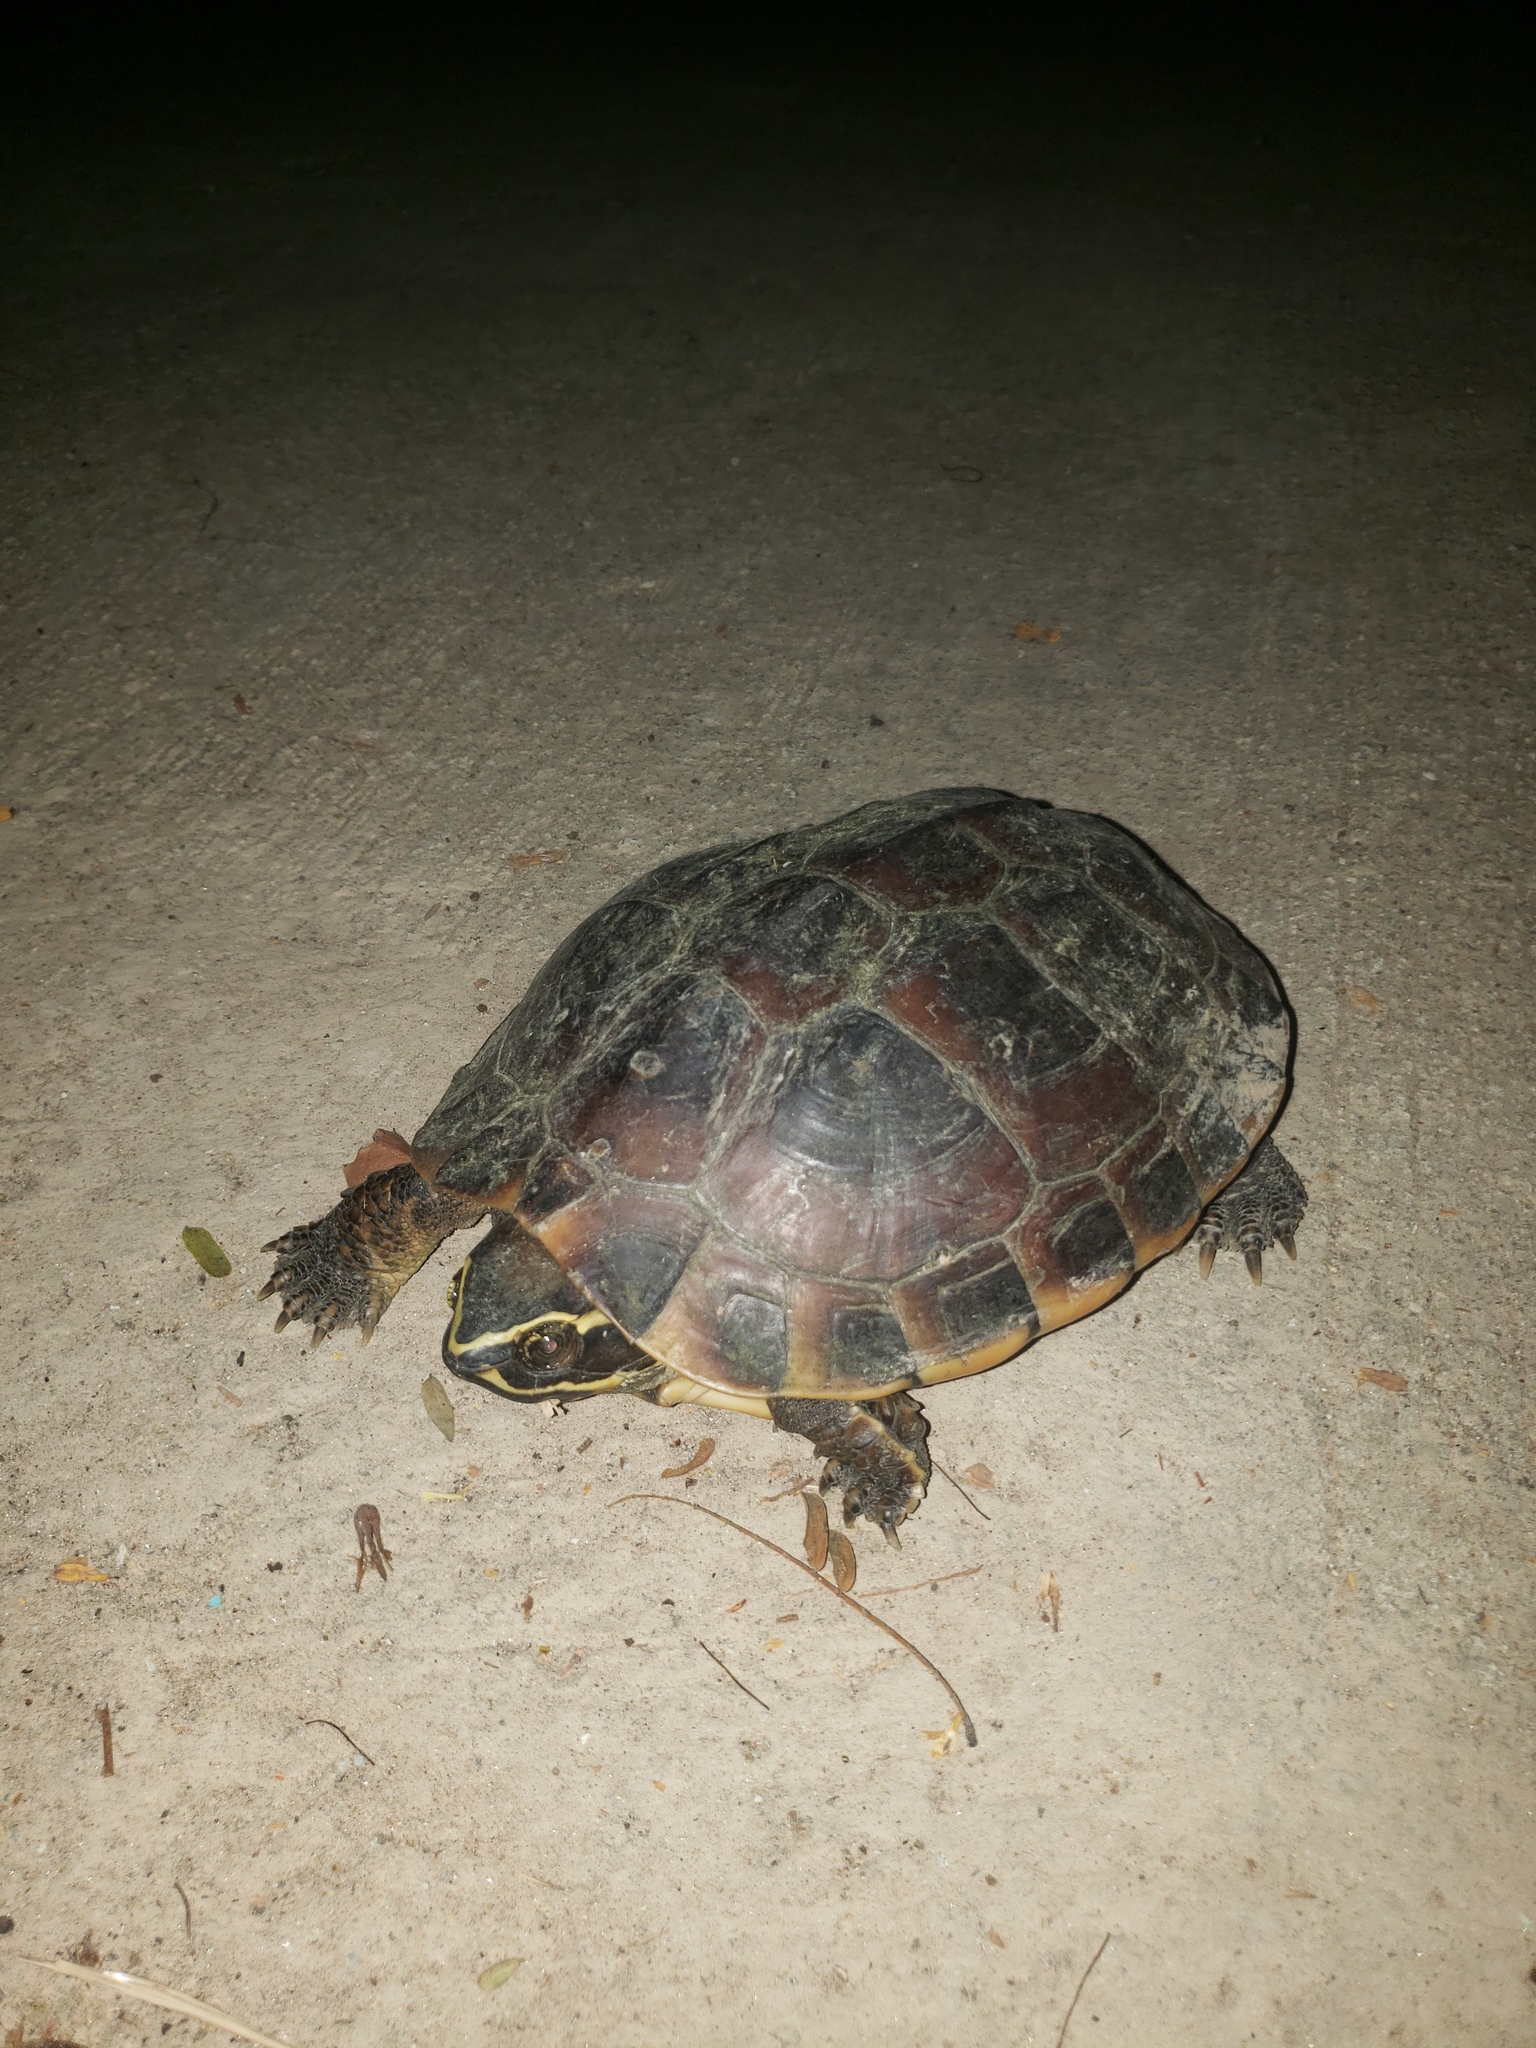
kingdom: Animalia
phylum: Chordata
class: Testudines
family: Geoemydidae
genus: Malayemys
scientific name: Malayemys macrocephala
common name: Malayan snail-eating turtle
